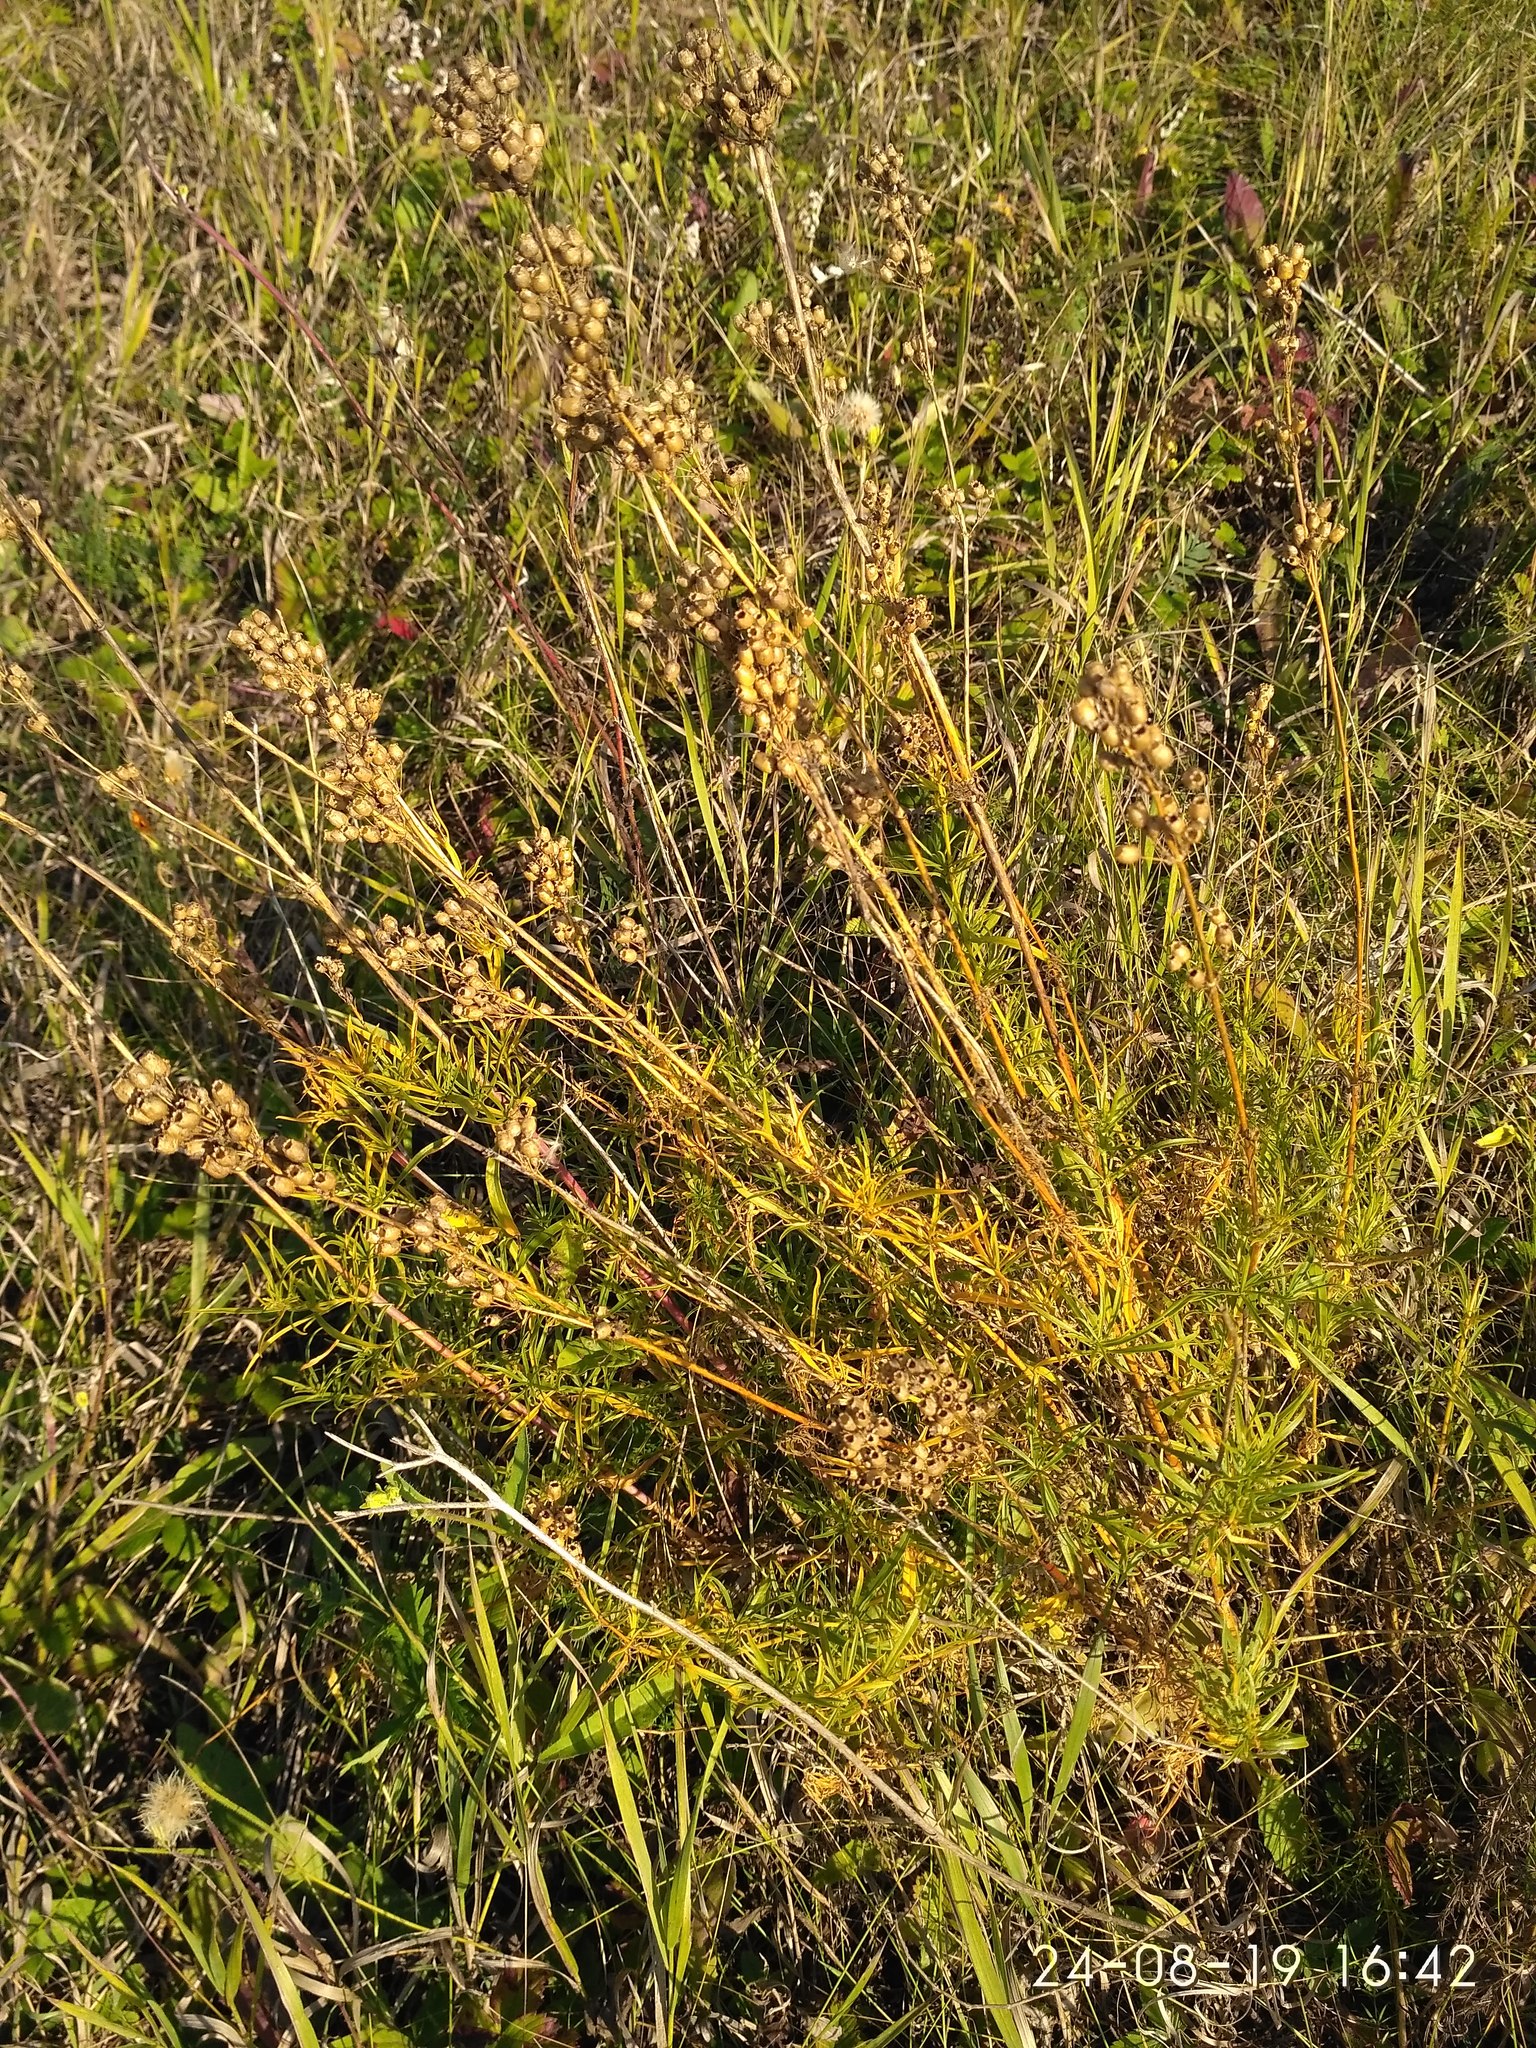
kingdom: Plantae
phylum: Tracheophyta
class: Magnoliopsida
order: Caryophyllales
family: Caryophyllaceae
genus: Silene
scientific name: Silene sibirica
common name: Siberian catchfly
